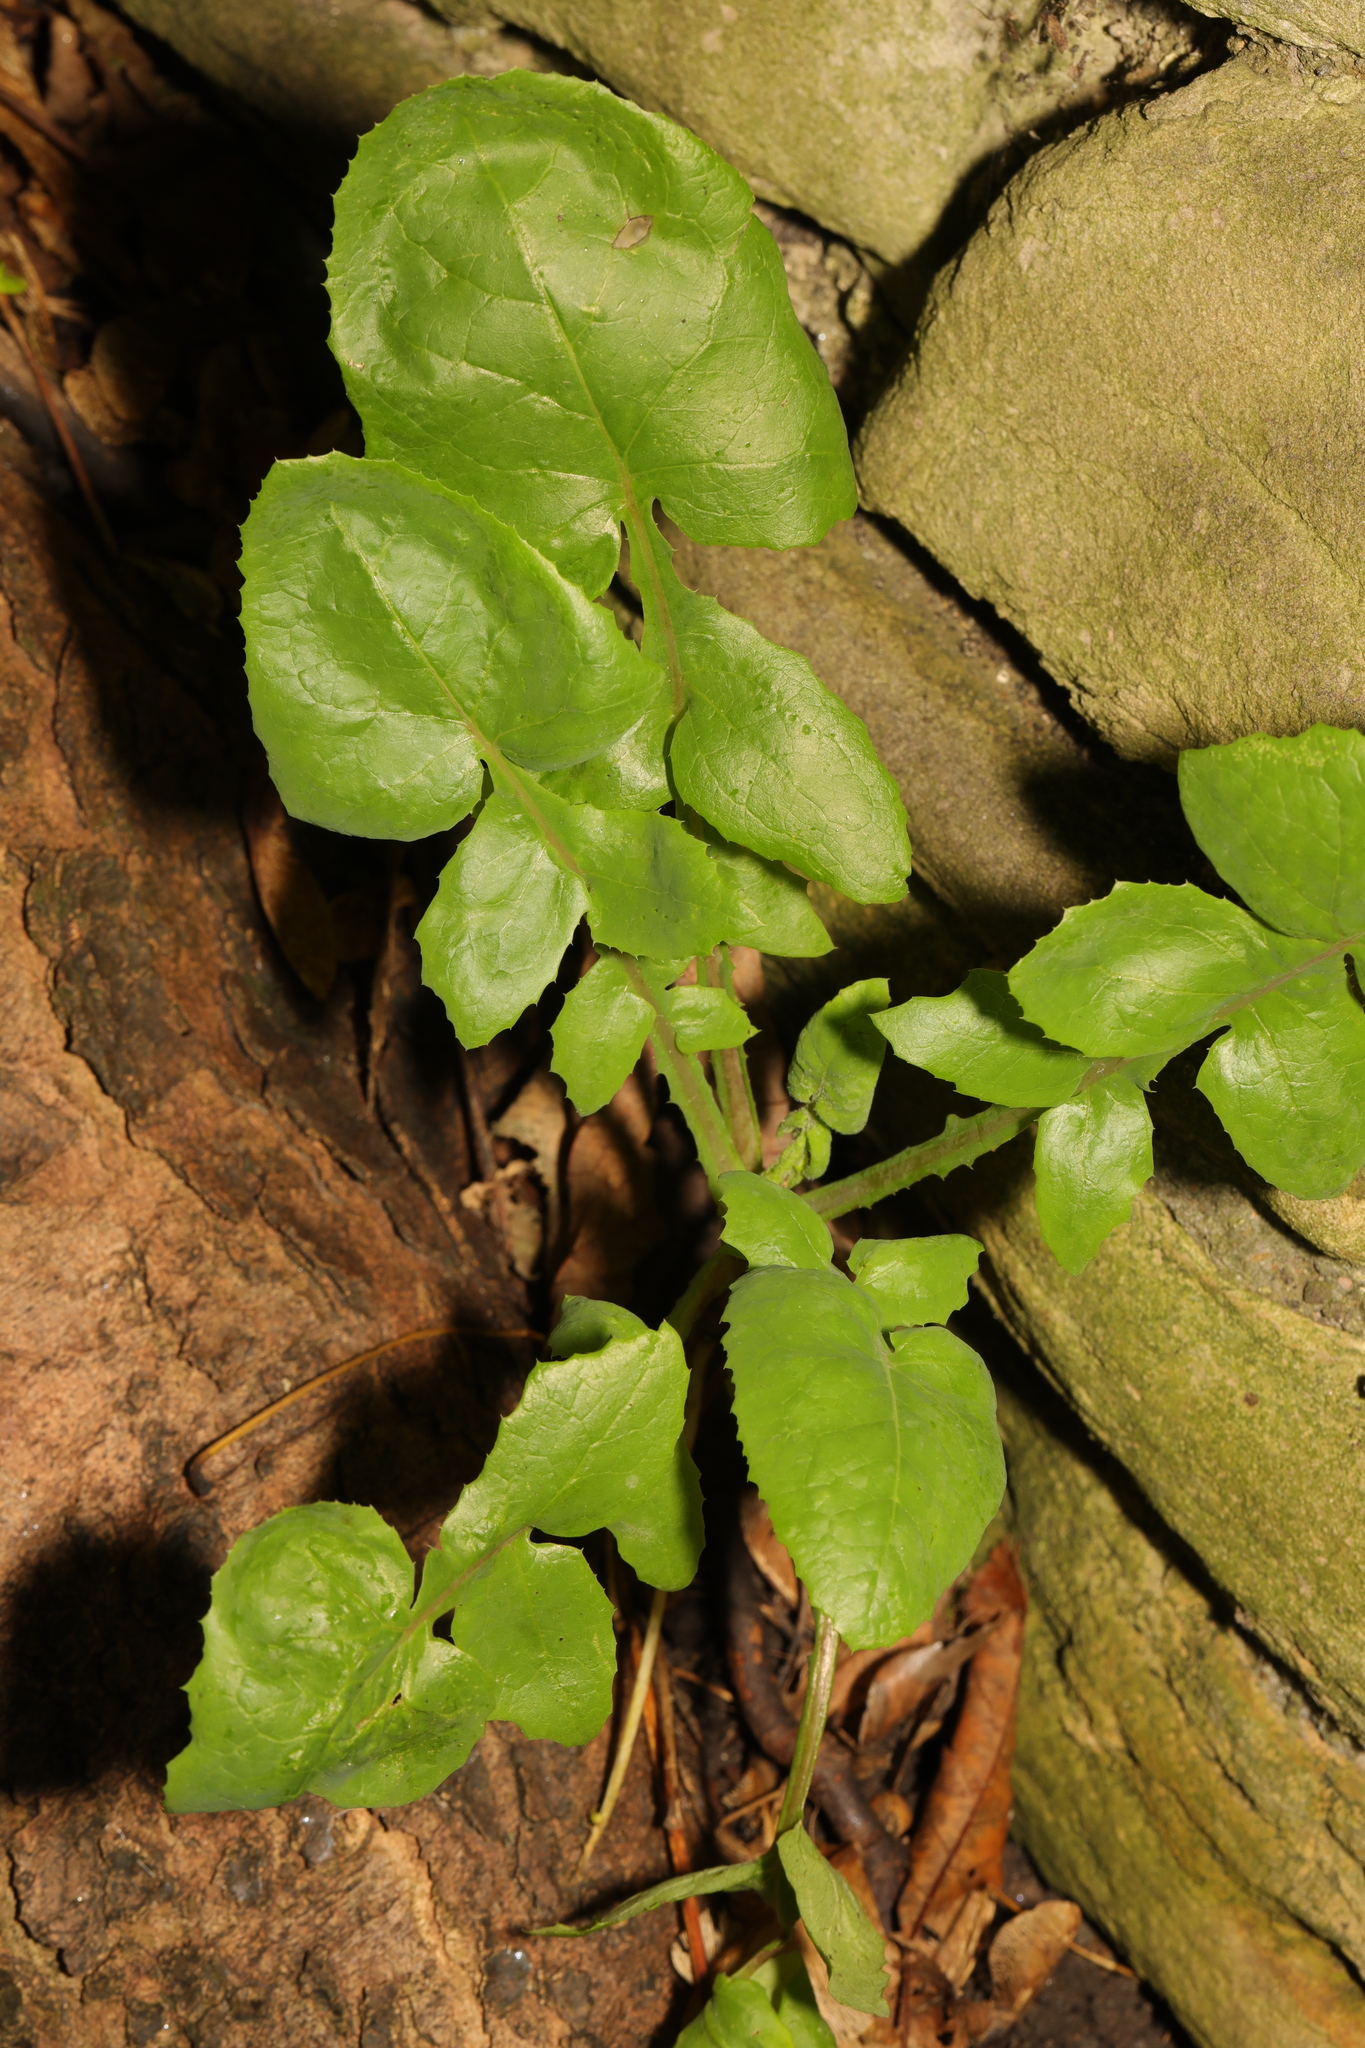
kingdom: Plantae
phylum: Tracheophyta
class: Magnoliopsida
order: Asterales
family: Asteraceae
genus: Sonchus
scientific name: Sonchus oleraceus
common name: Common sowthistle
